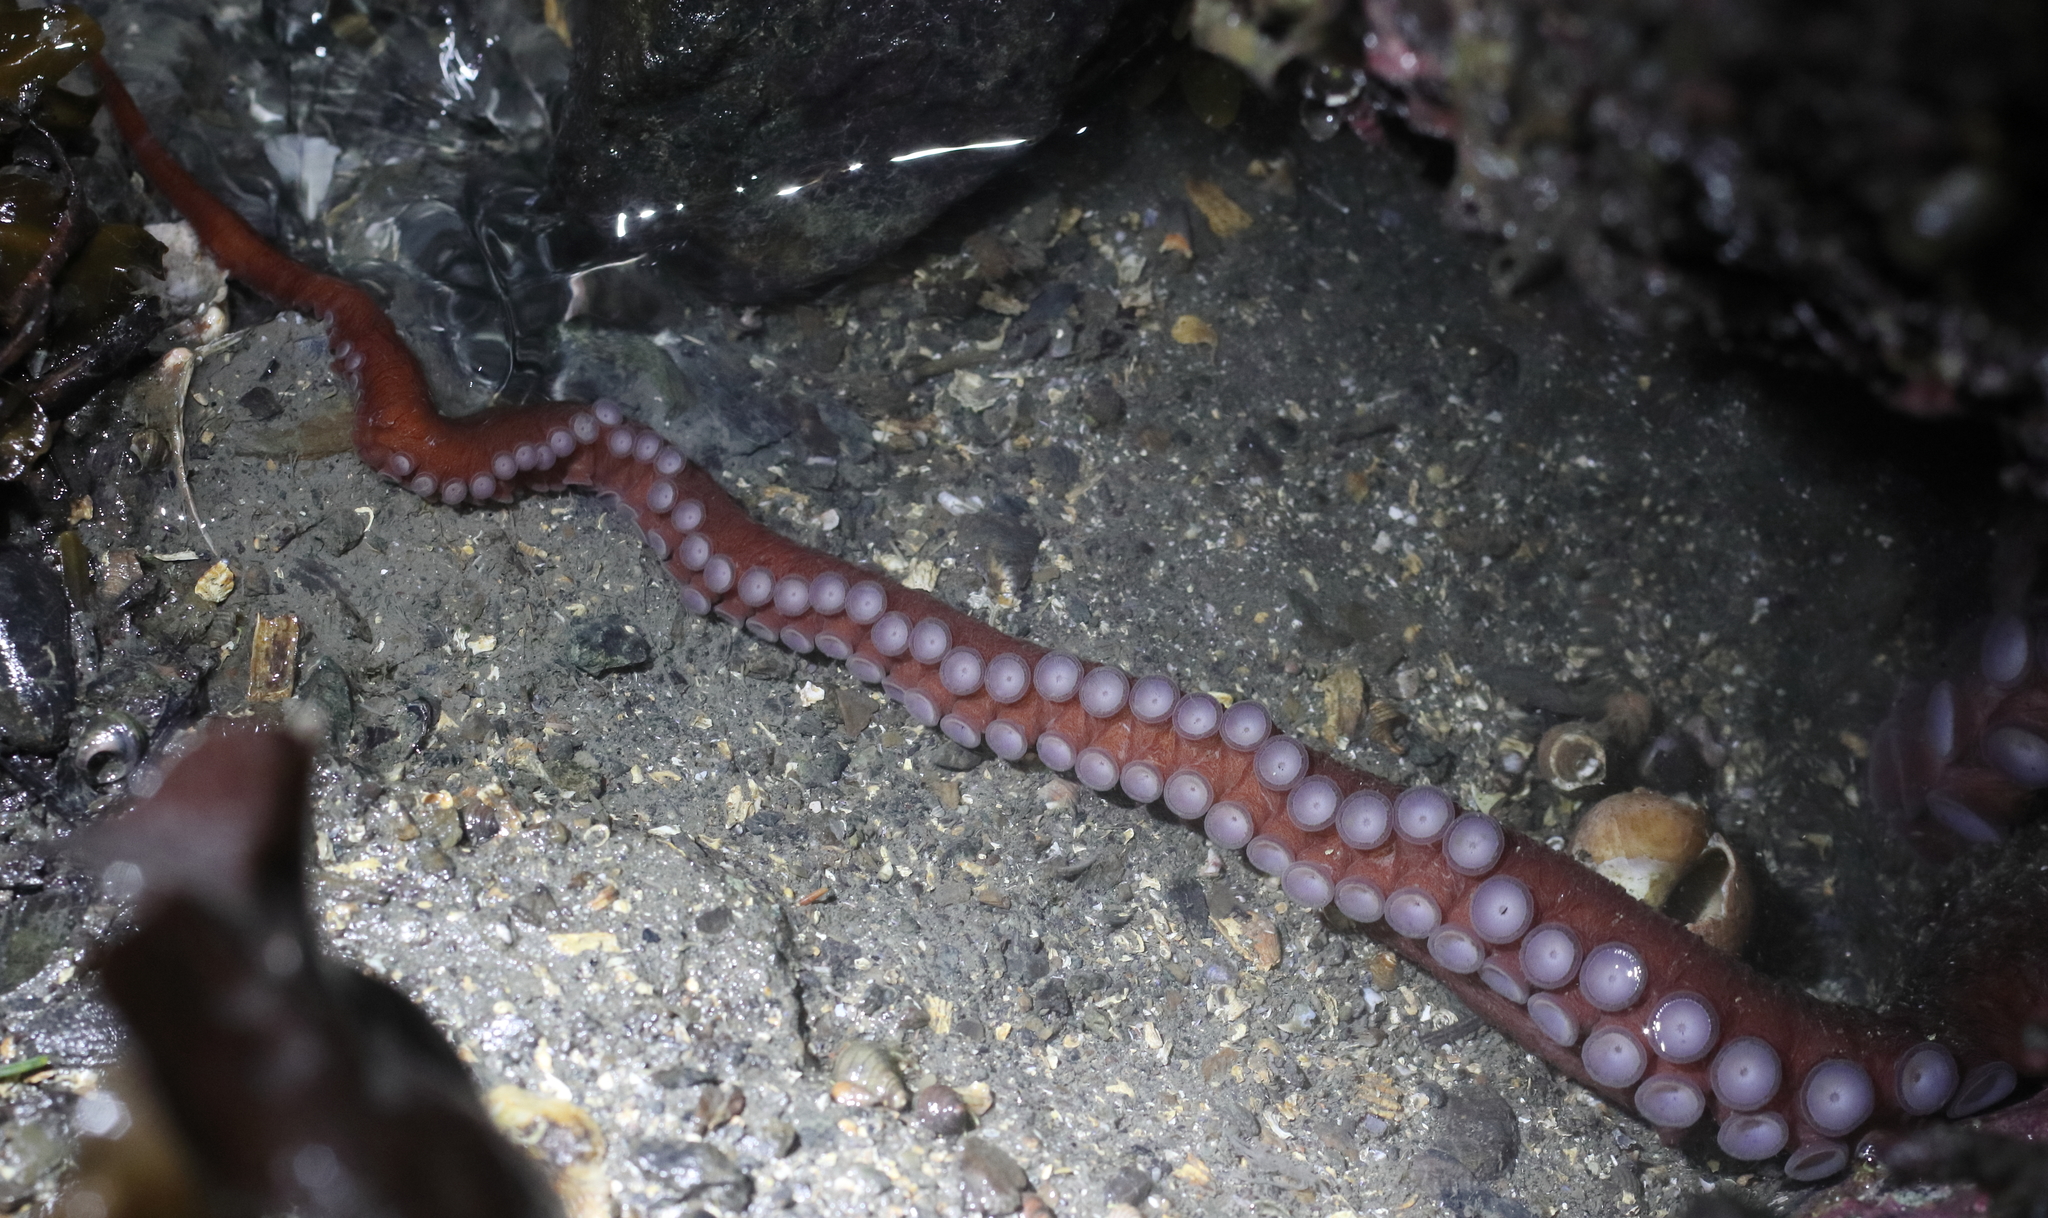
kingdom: Animalia
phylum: Mollusca
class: Cephalopoda
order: Octopoda
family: Enteroctopodidae
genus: Enteroctopus
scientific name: Enteroctopus dofleini
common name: Giant north pacific octopus
